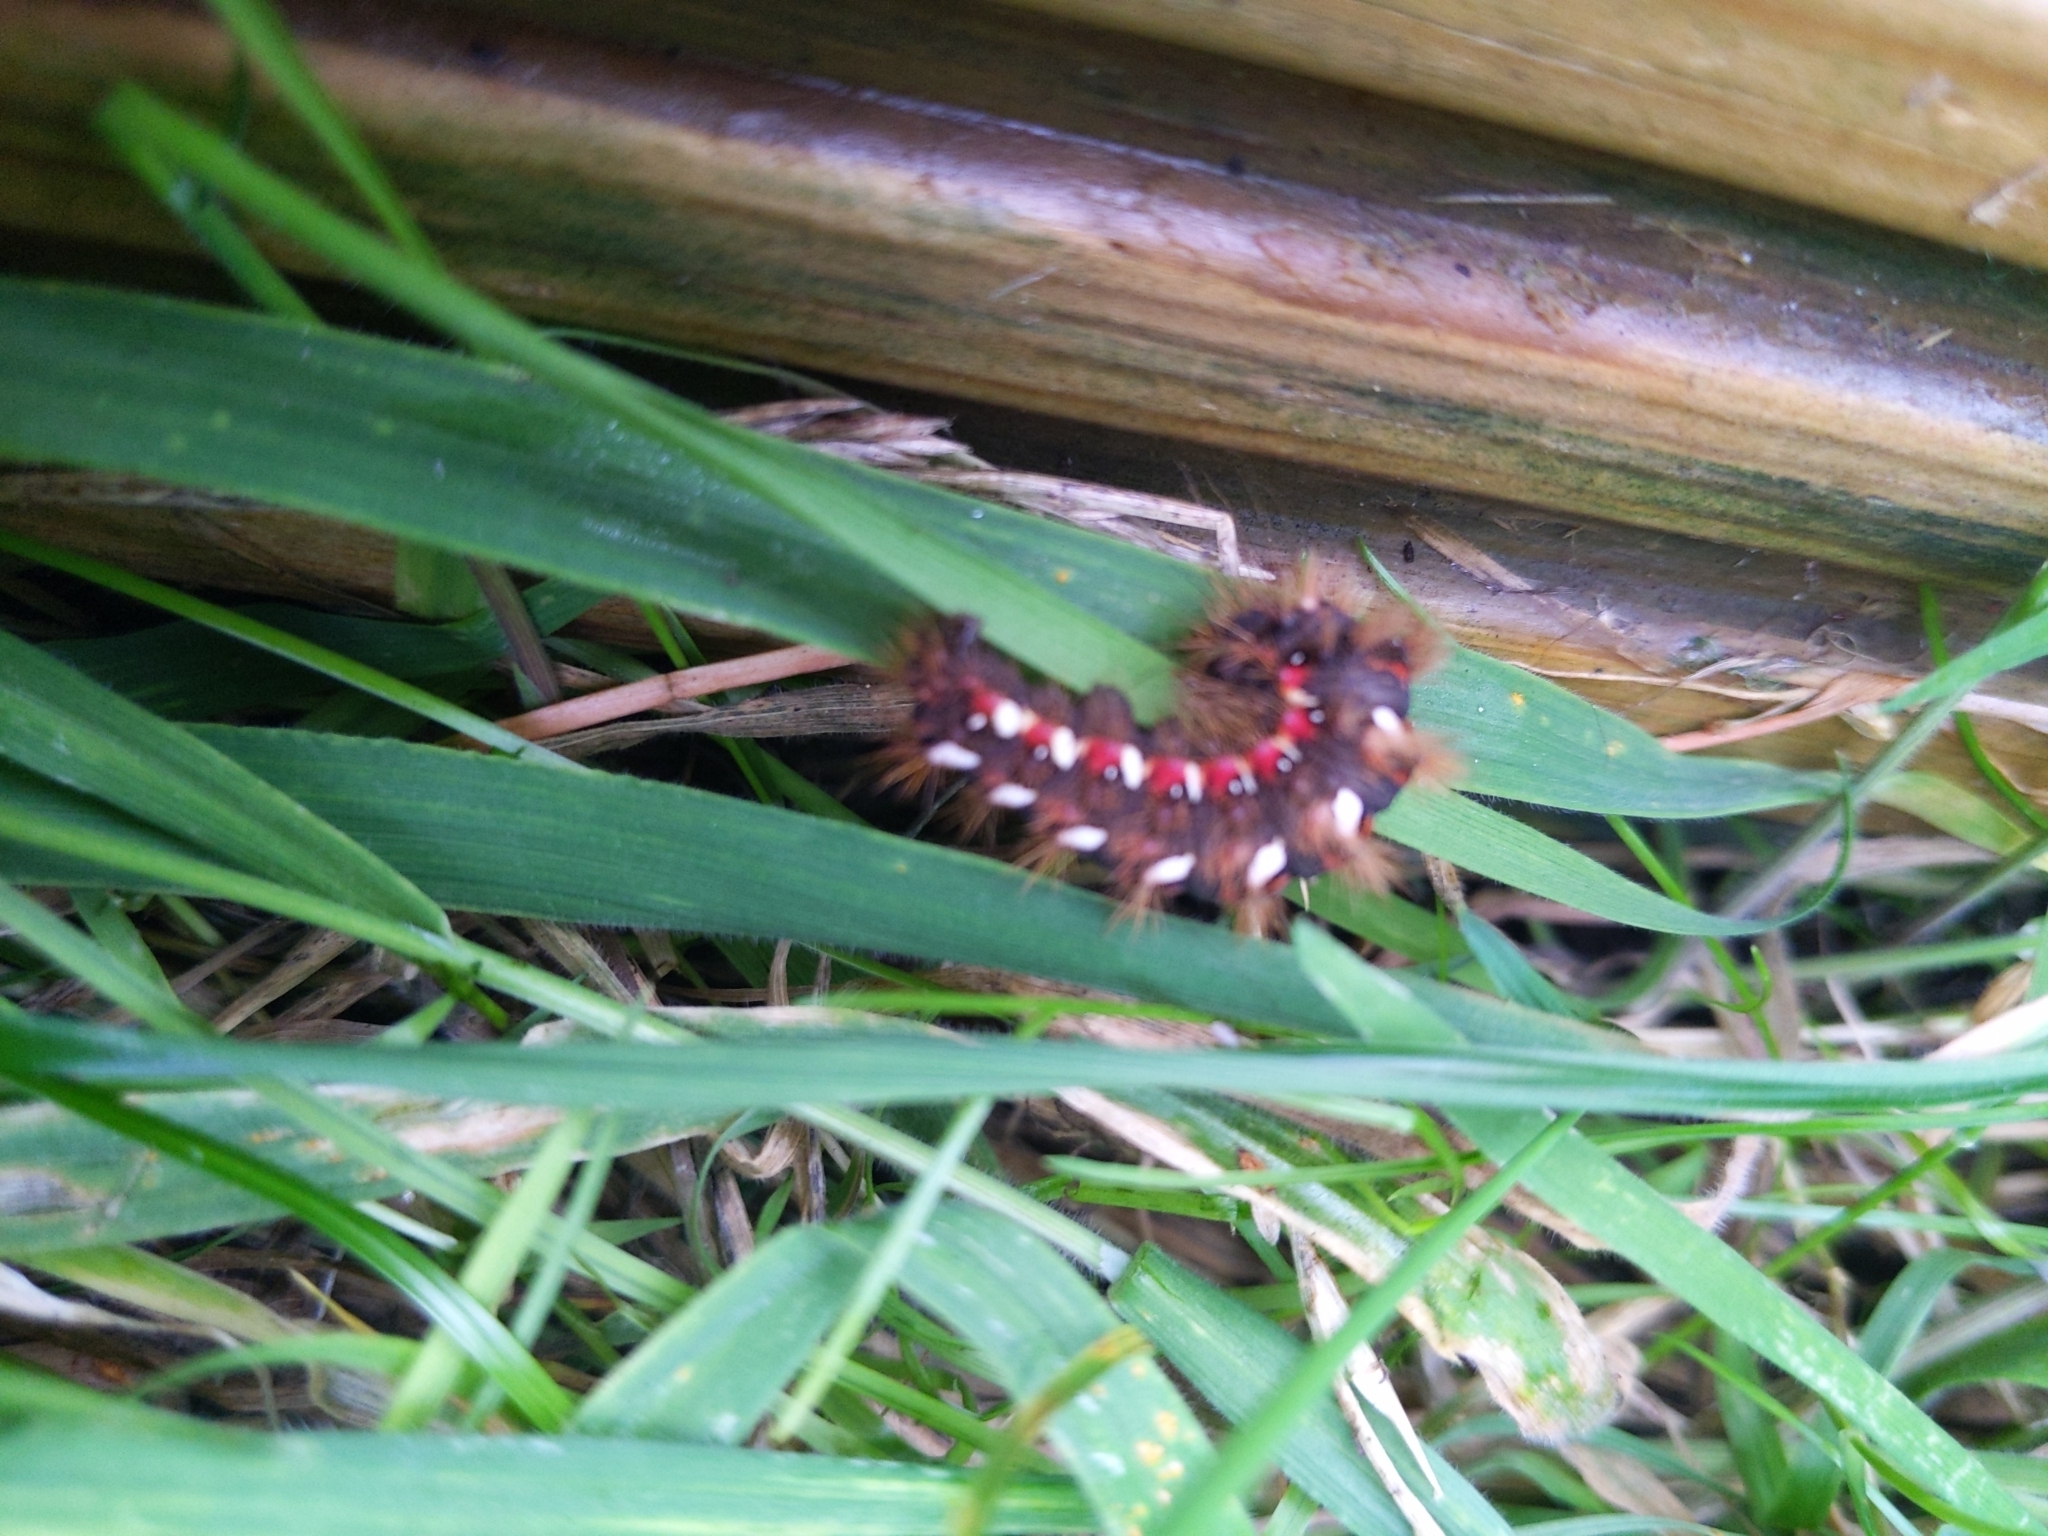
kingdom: Animalia
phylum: Arthropoda
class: Insecta
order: Lepidoptera
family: Noctuidae
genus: Acronicta
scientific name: Acronicta rumicis
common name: Knot grass
